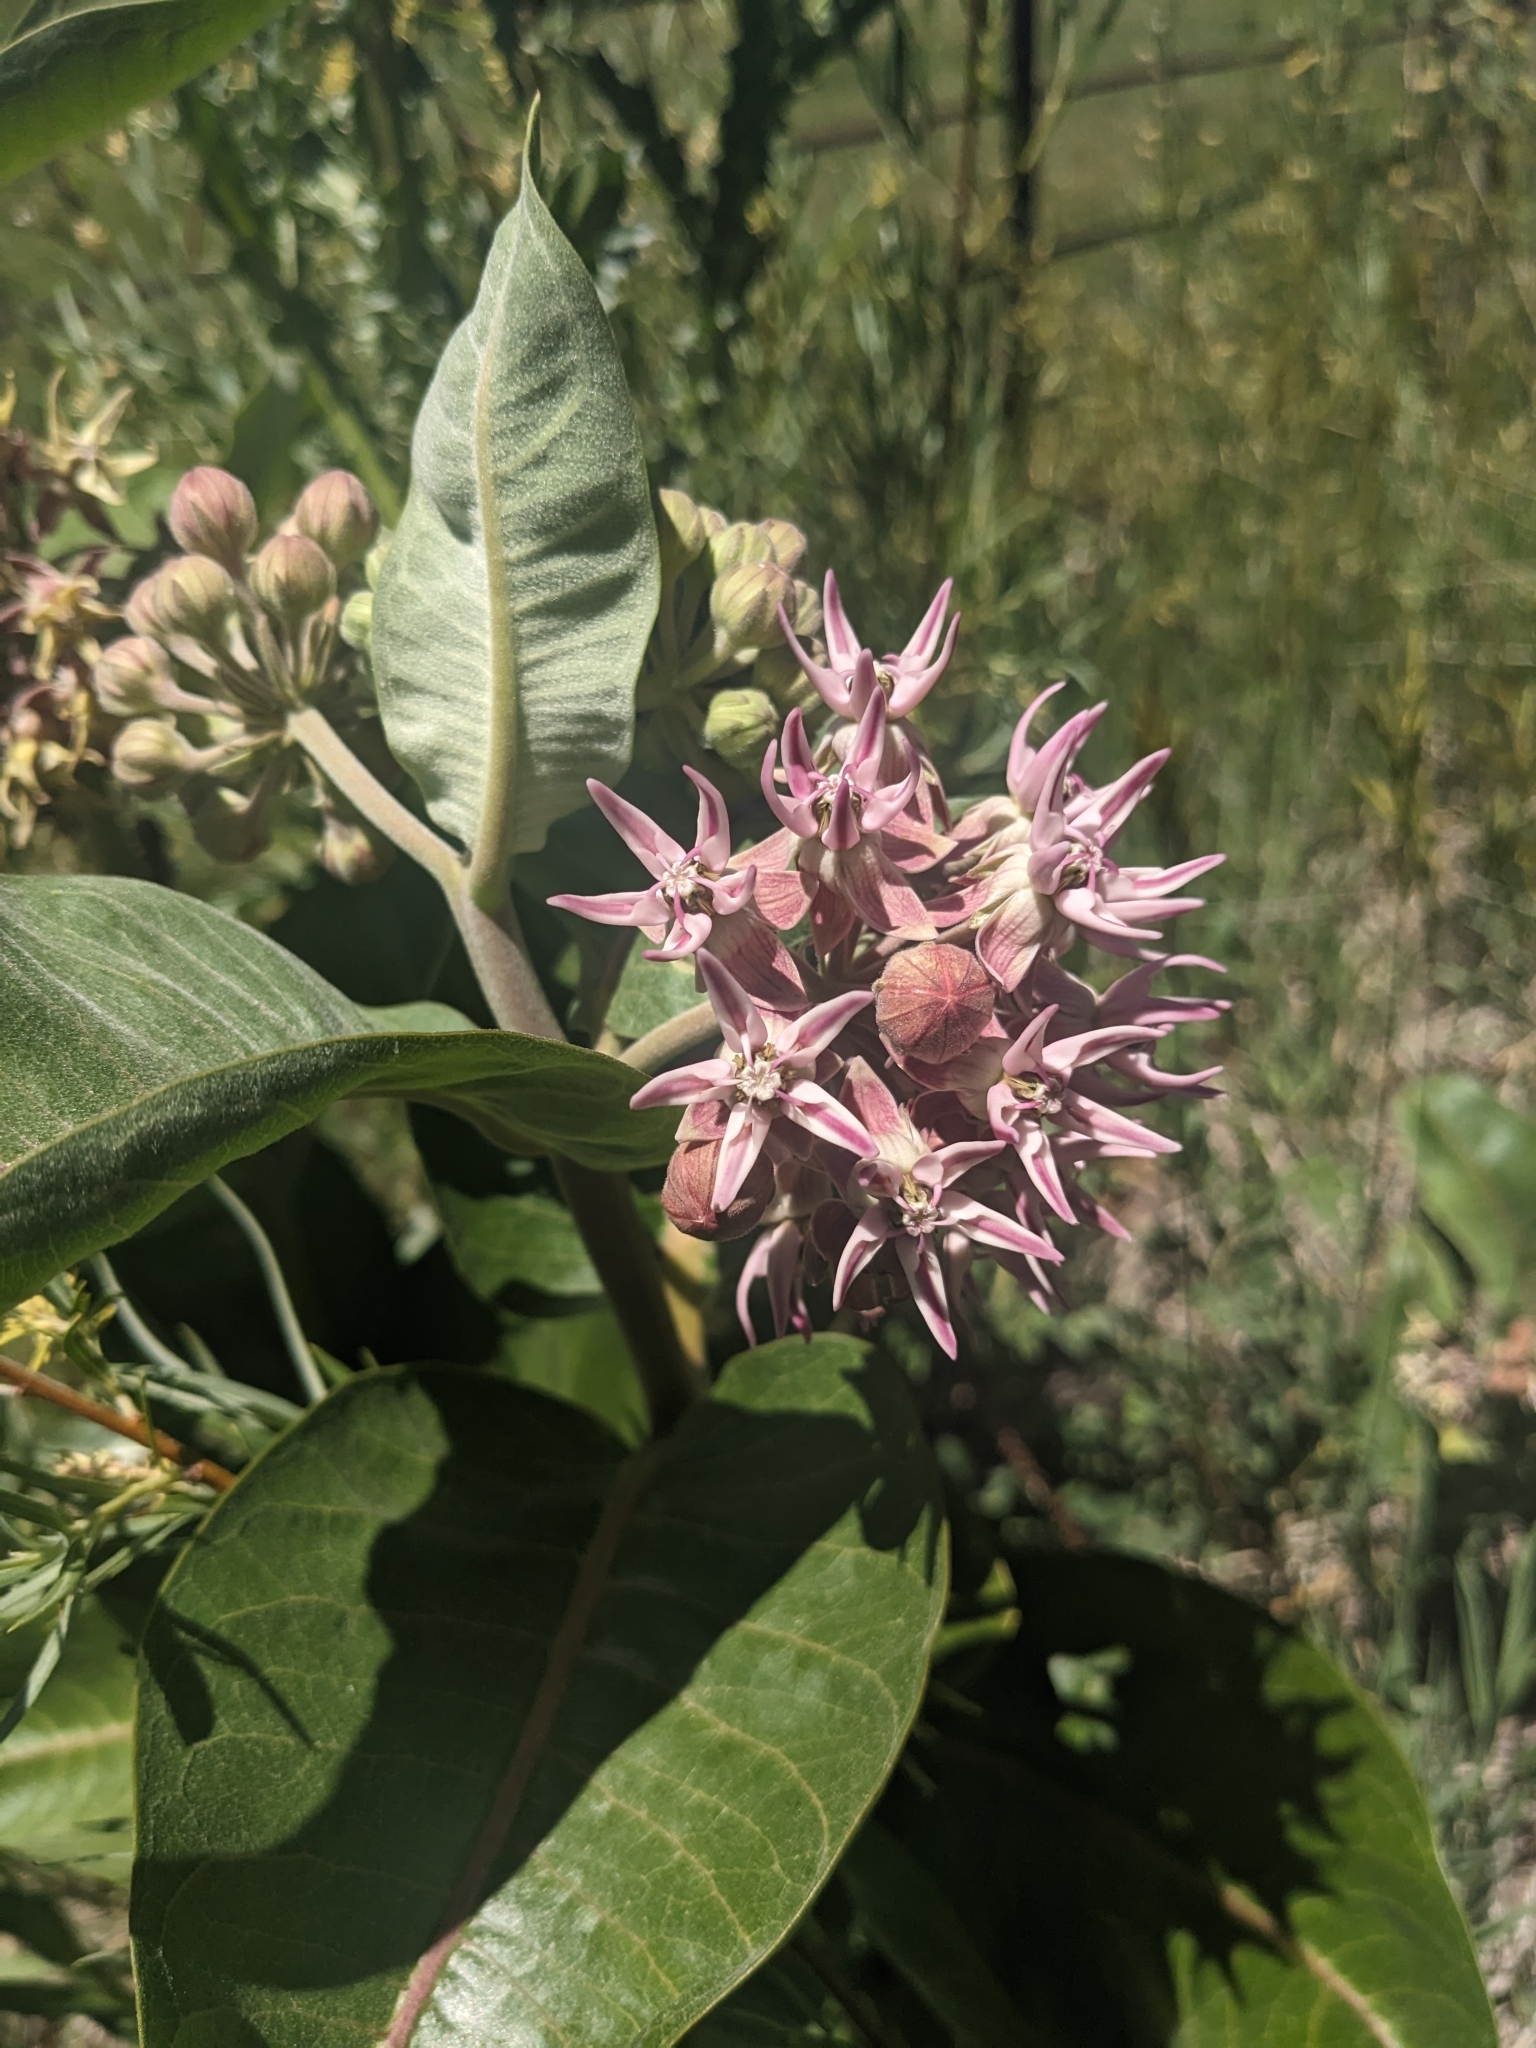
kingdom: Plantae
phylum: Tracheophyta
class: Magnoliopsida
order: Gentianales
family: Apocynaceae
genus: Asclepias
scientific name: Asclepias speciosa
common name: Showy milkweed
